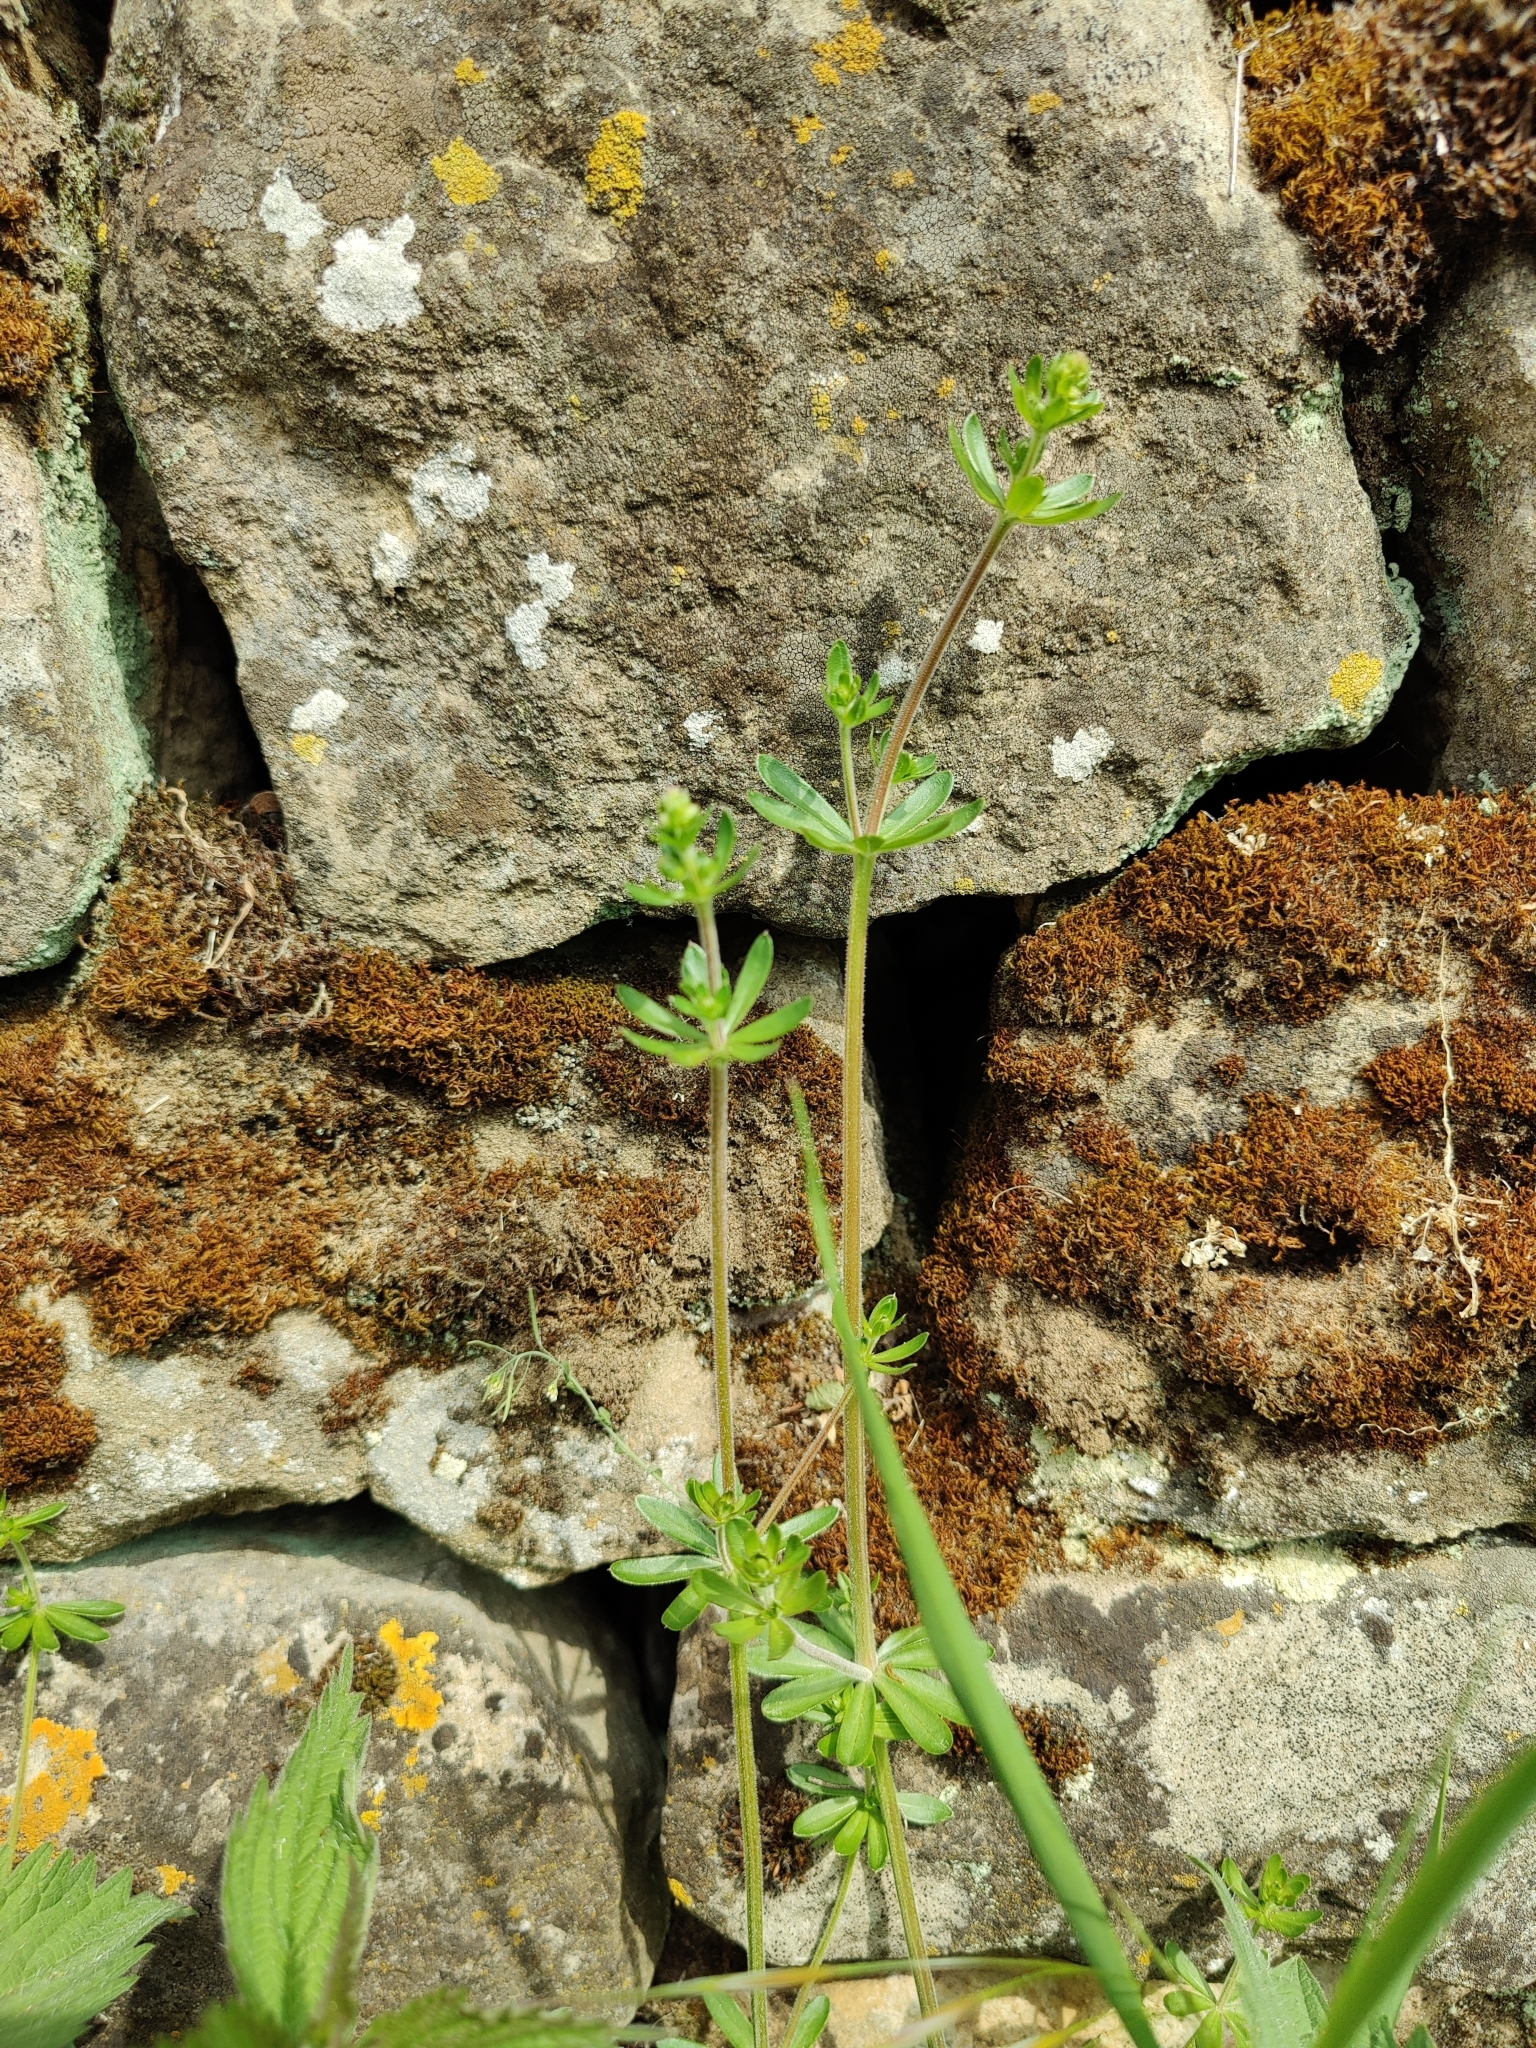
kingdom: Plantae
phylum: Tracheophyta
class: Magnoliopsida
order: Gentianales
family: Rubiaceae
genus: Galium
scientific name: Galium mollugo
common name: Hedge bedstraw
